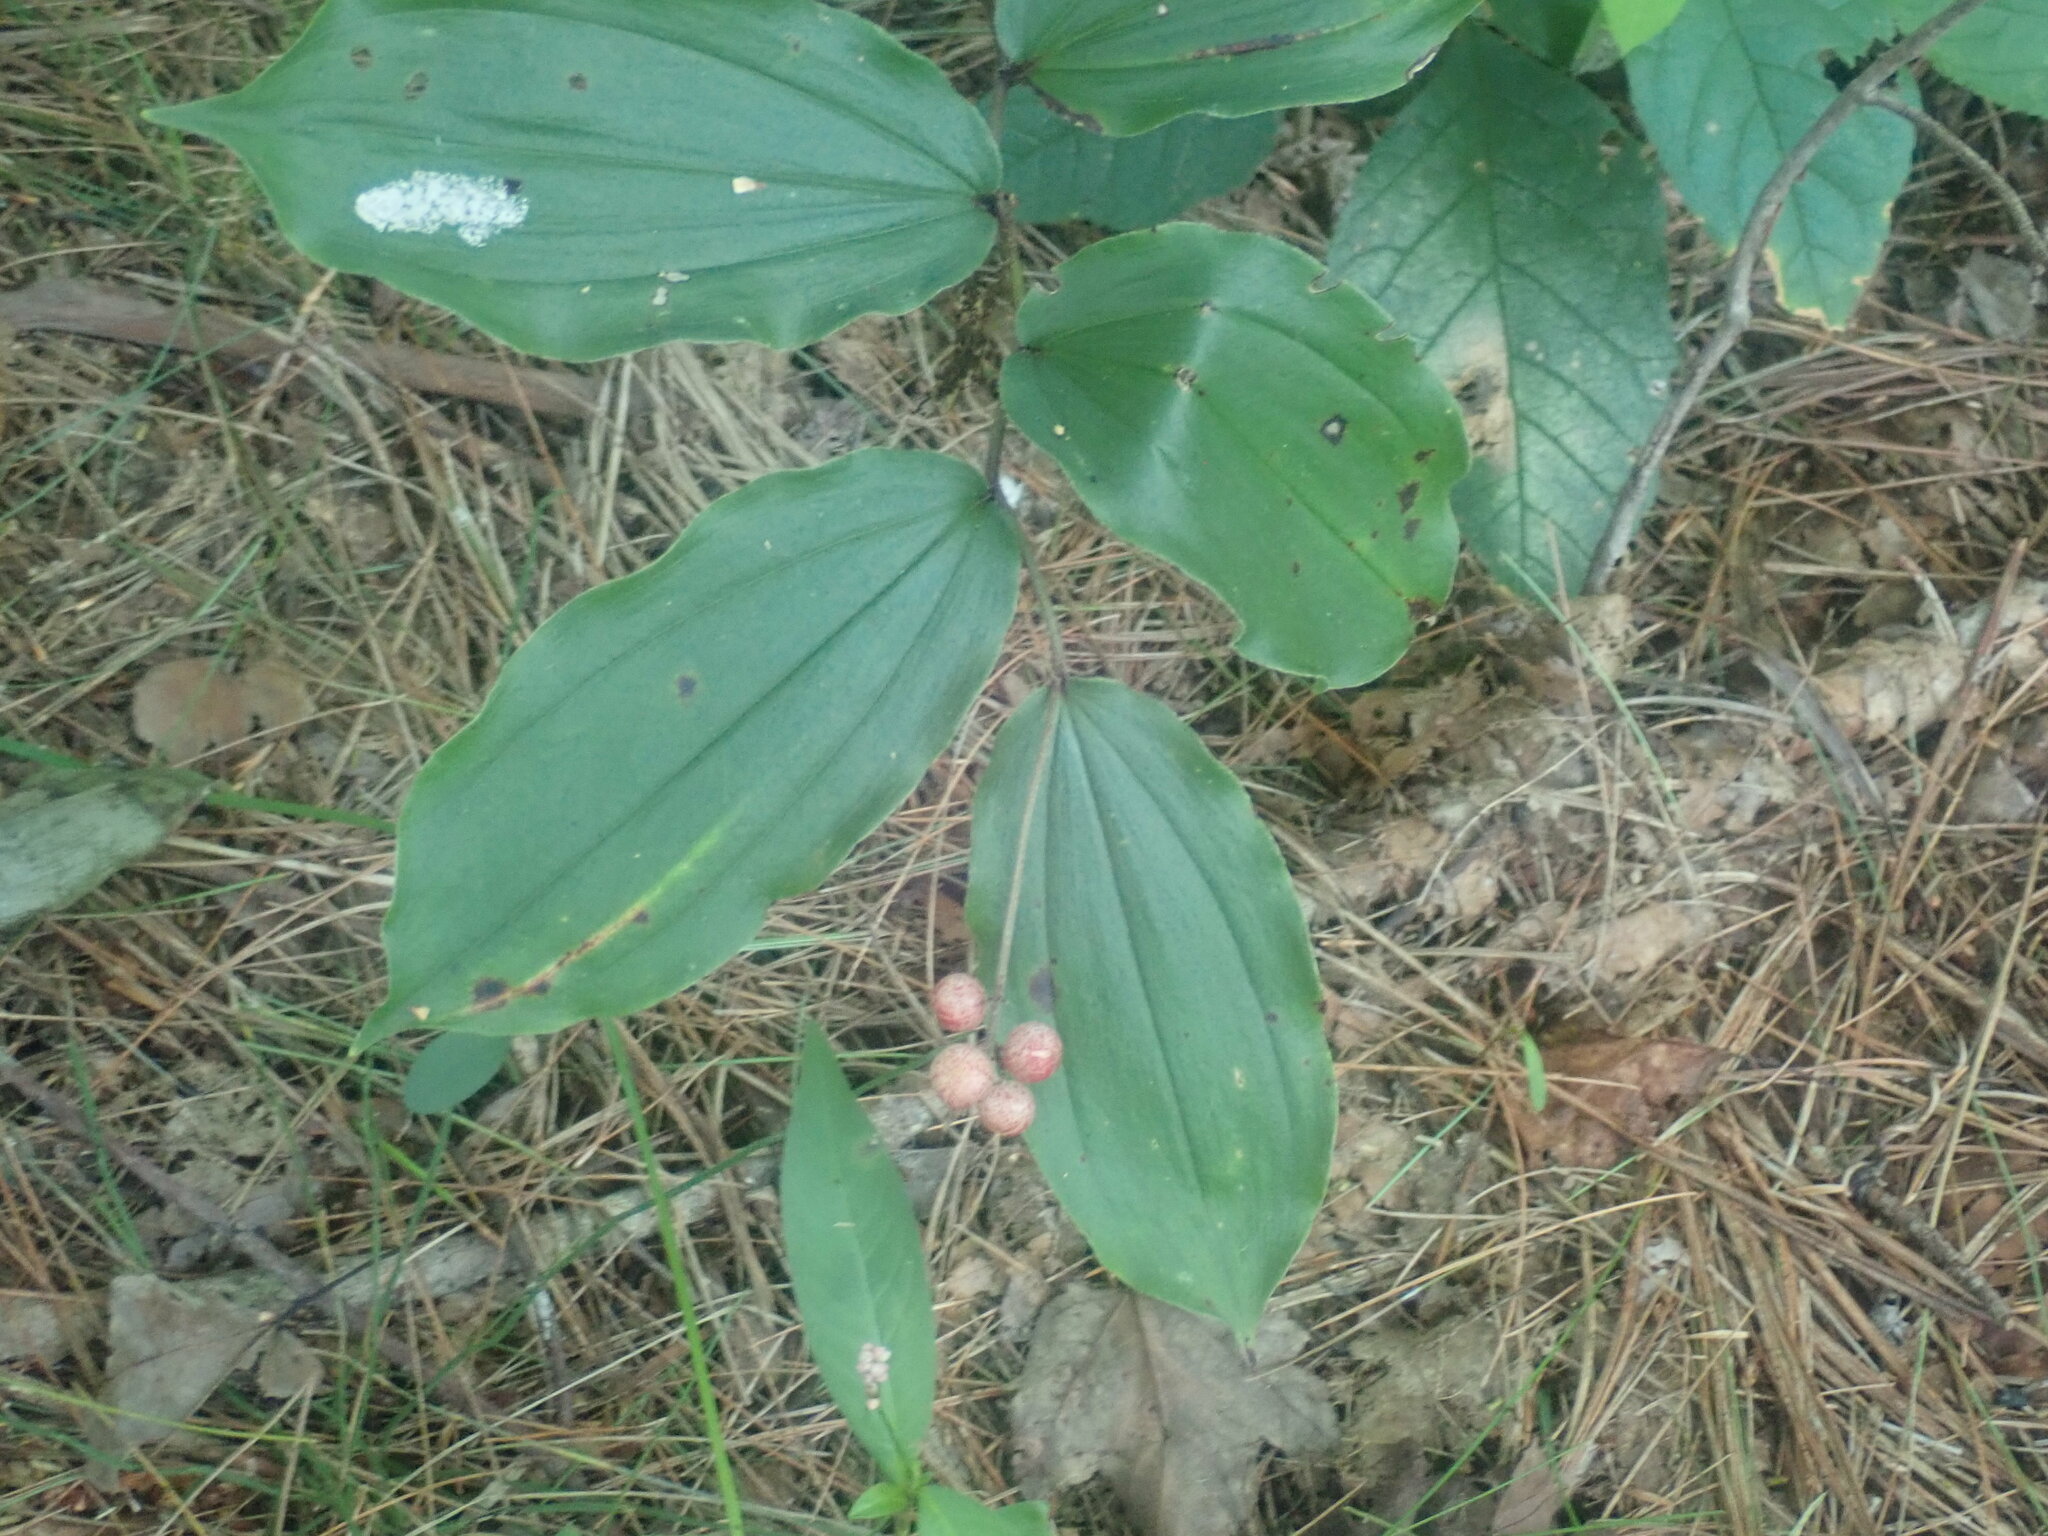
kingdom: Plantae
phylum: Tracheophyta
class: Liliopsida
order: Asparagales
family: Asparagaceae
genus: Maianthemum
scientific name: Maianthemum racemosum
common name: False spikenard
